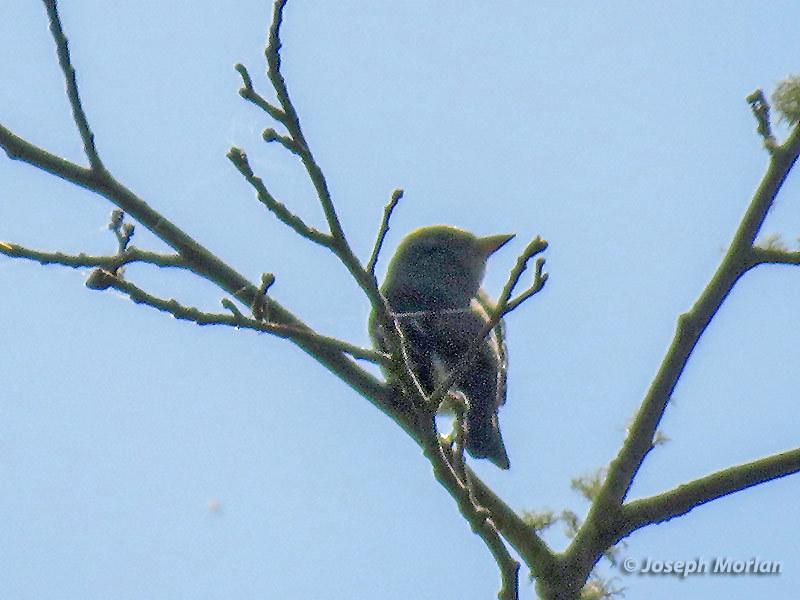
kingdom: Animalia
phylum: Chordata
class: Aves
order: Passeriformes
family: Tyrannidae
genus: Contopus
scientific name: Contopus cooperi
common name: Olive-sided flycatcher
